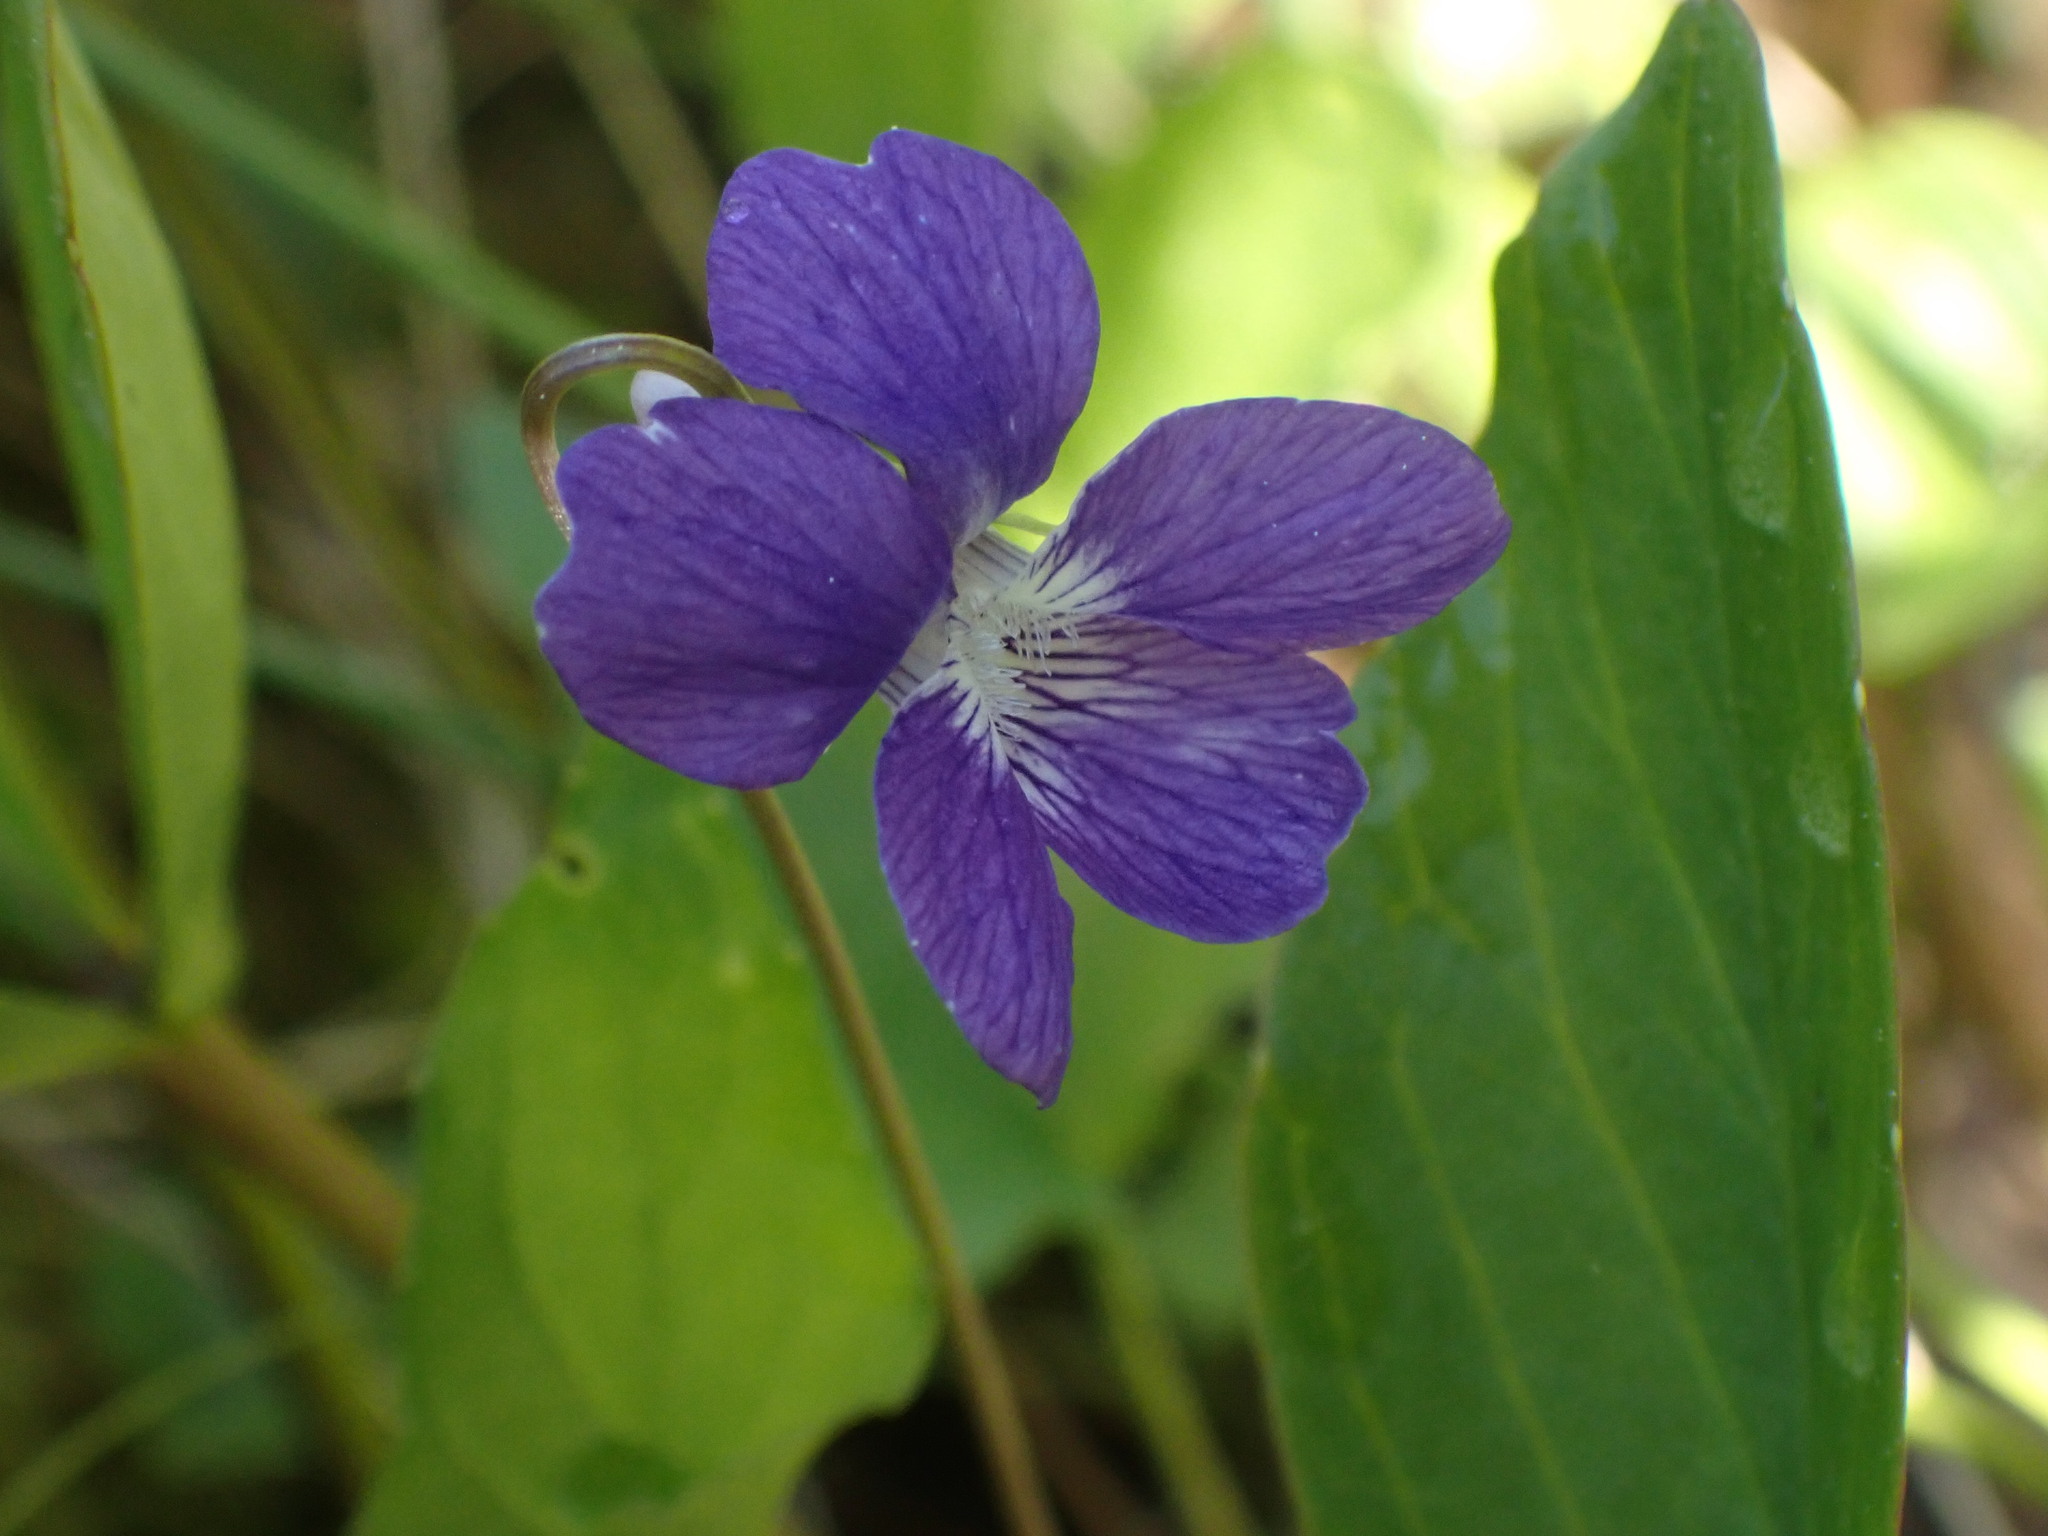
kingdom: Plantae
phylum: Tracheophyta
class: Magnoliopsida
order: Malpighiales
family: Violaceae
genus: Viola
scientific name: Viola nephrophylla
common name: Blue meadow violet
